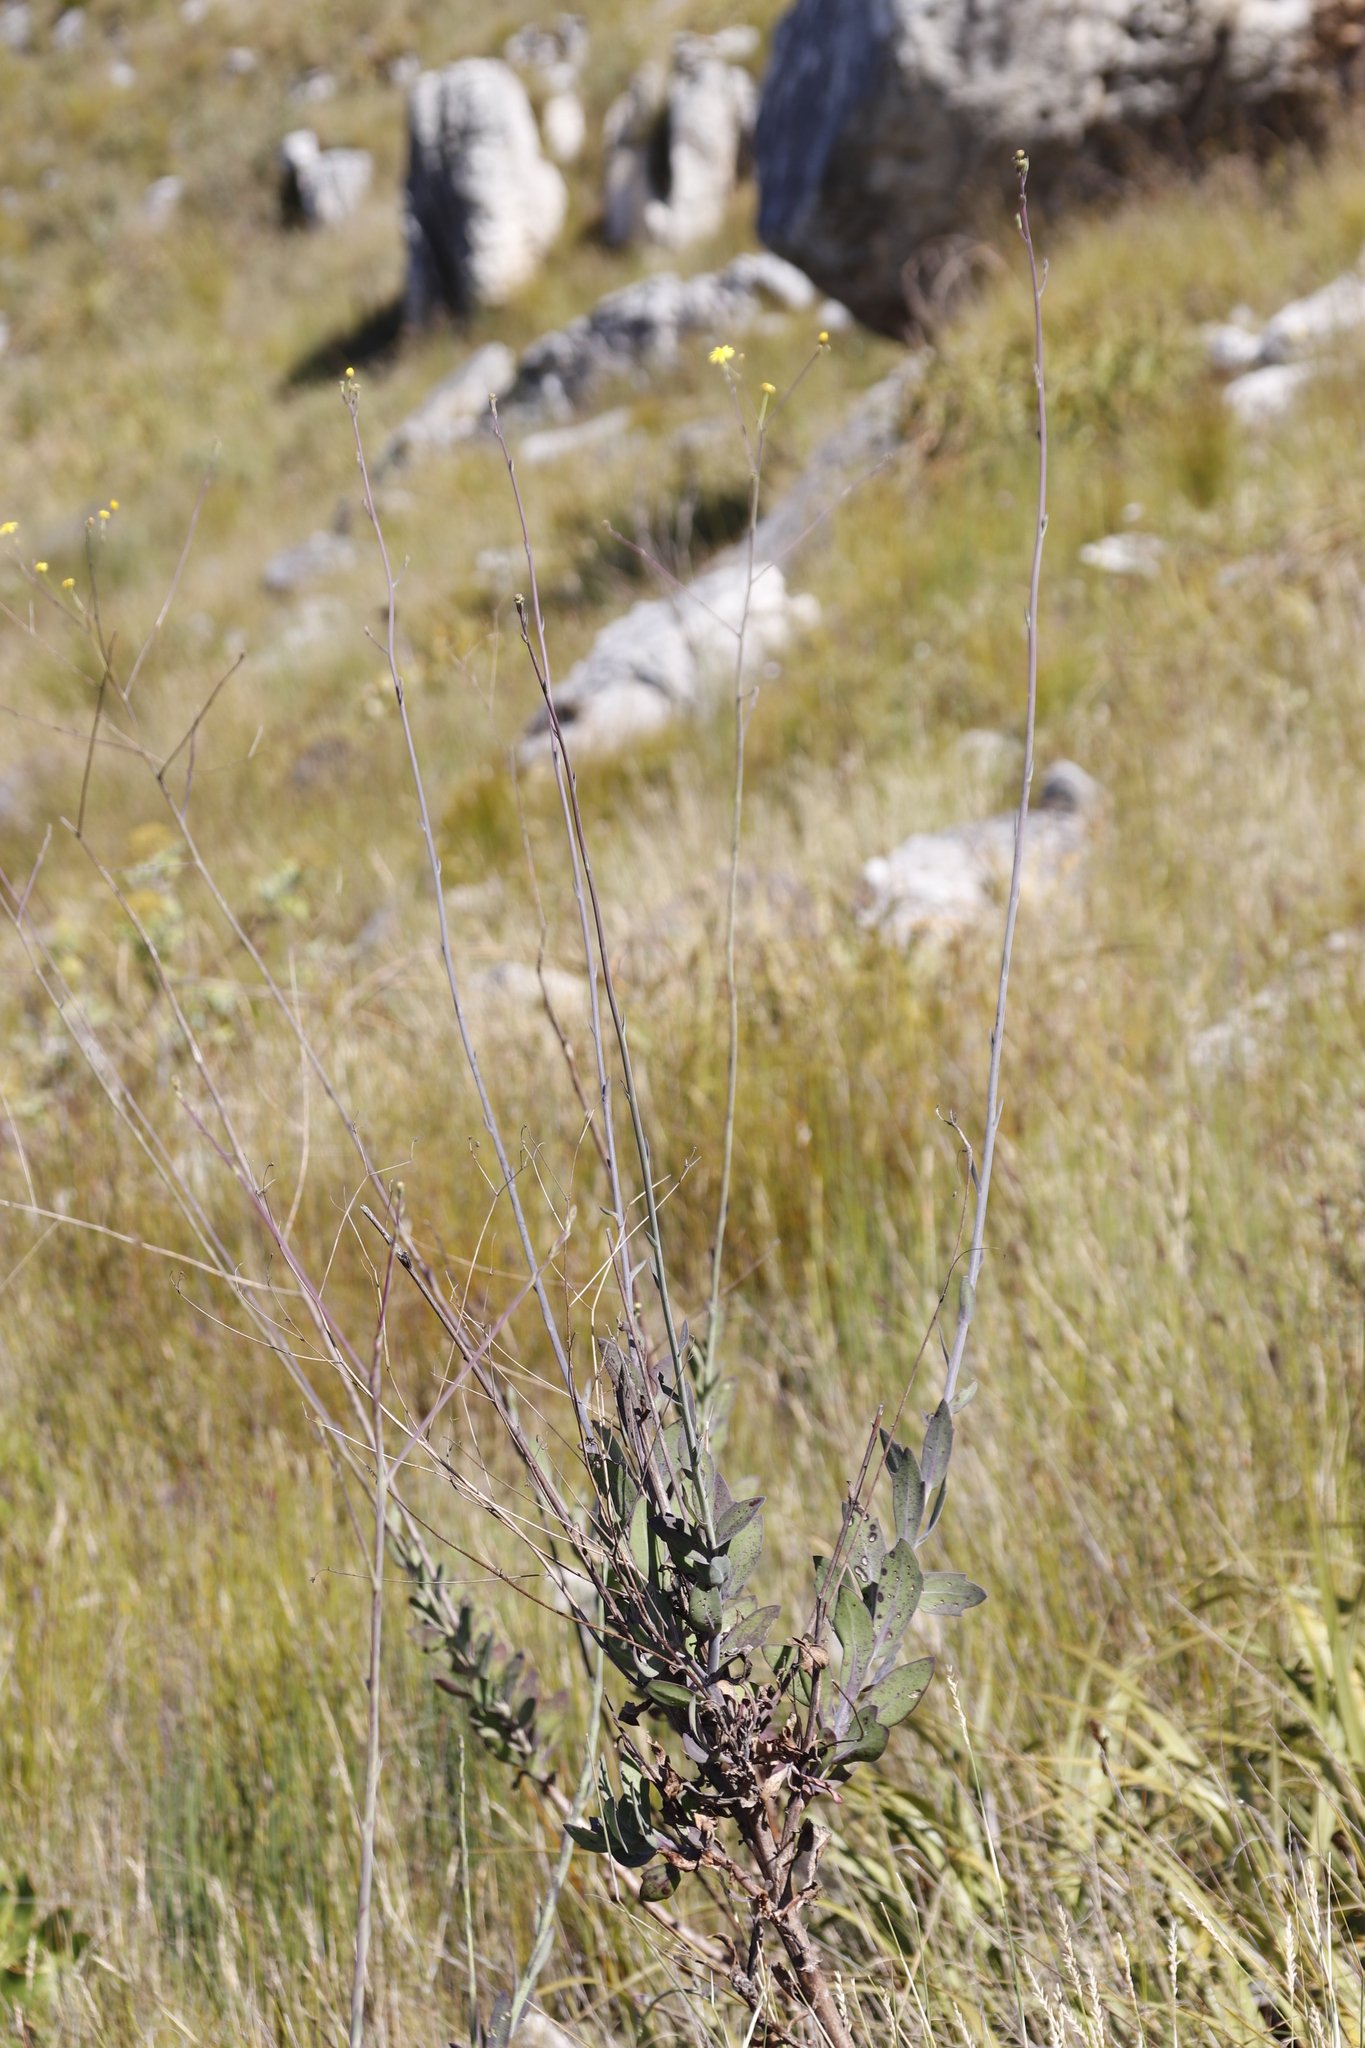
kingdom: Plantae
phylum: Tracheophyta
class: Magnoliopsida
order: Asterales
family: Asteraceae
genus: Othonna
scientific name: Othonna quinquedentata
